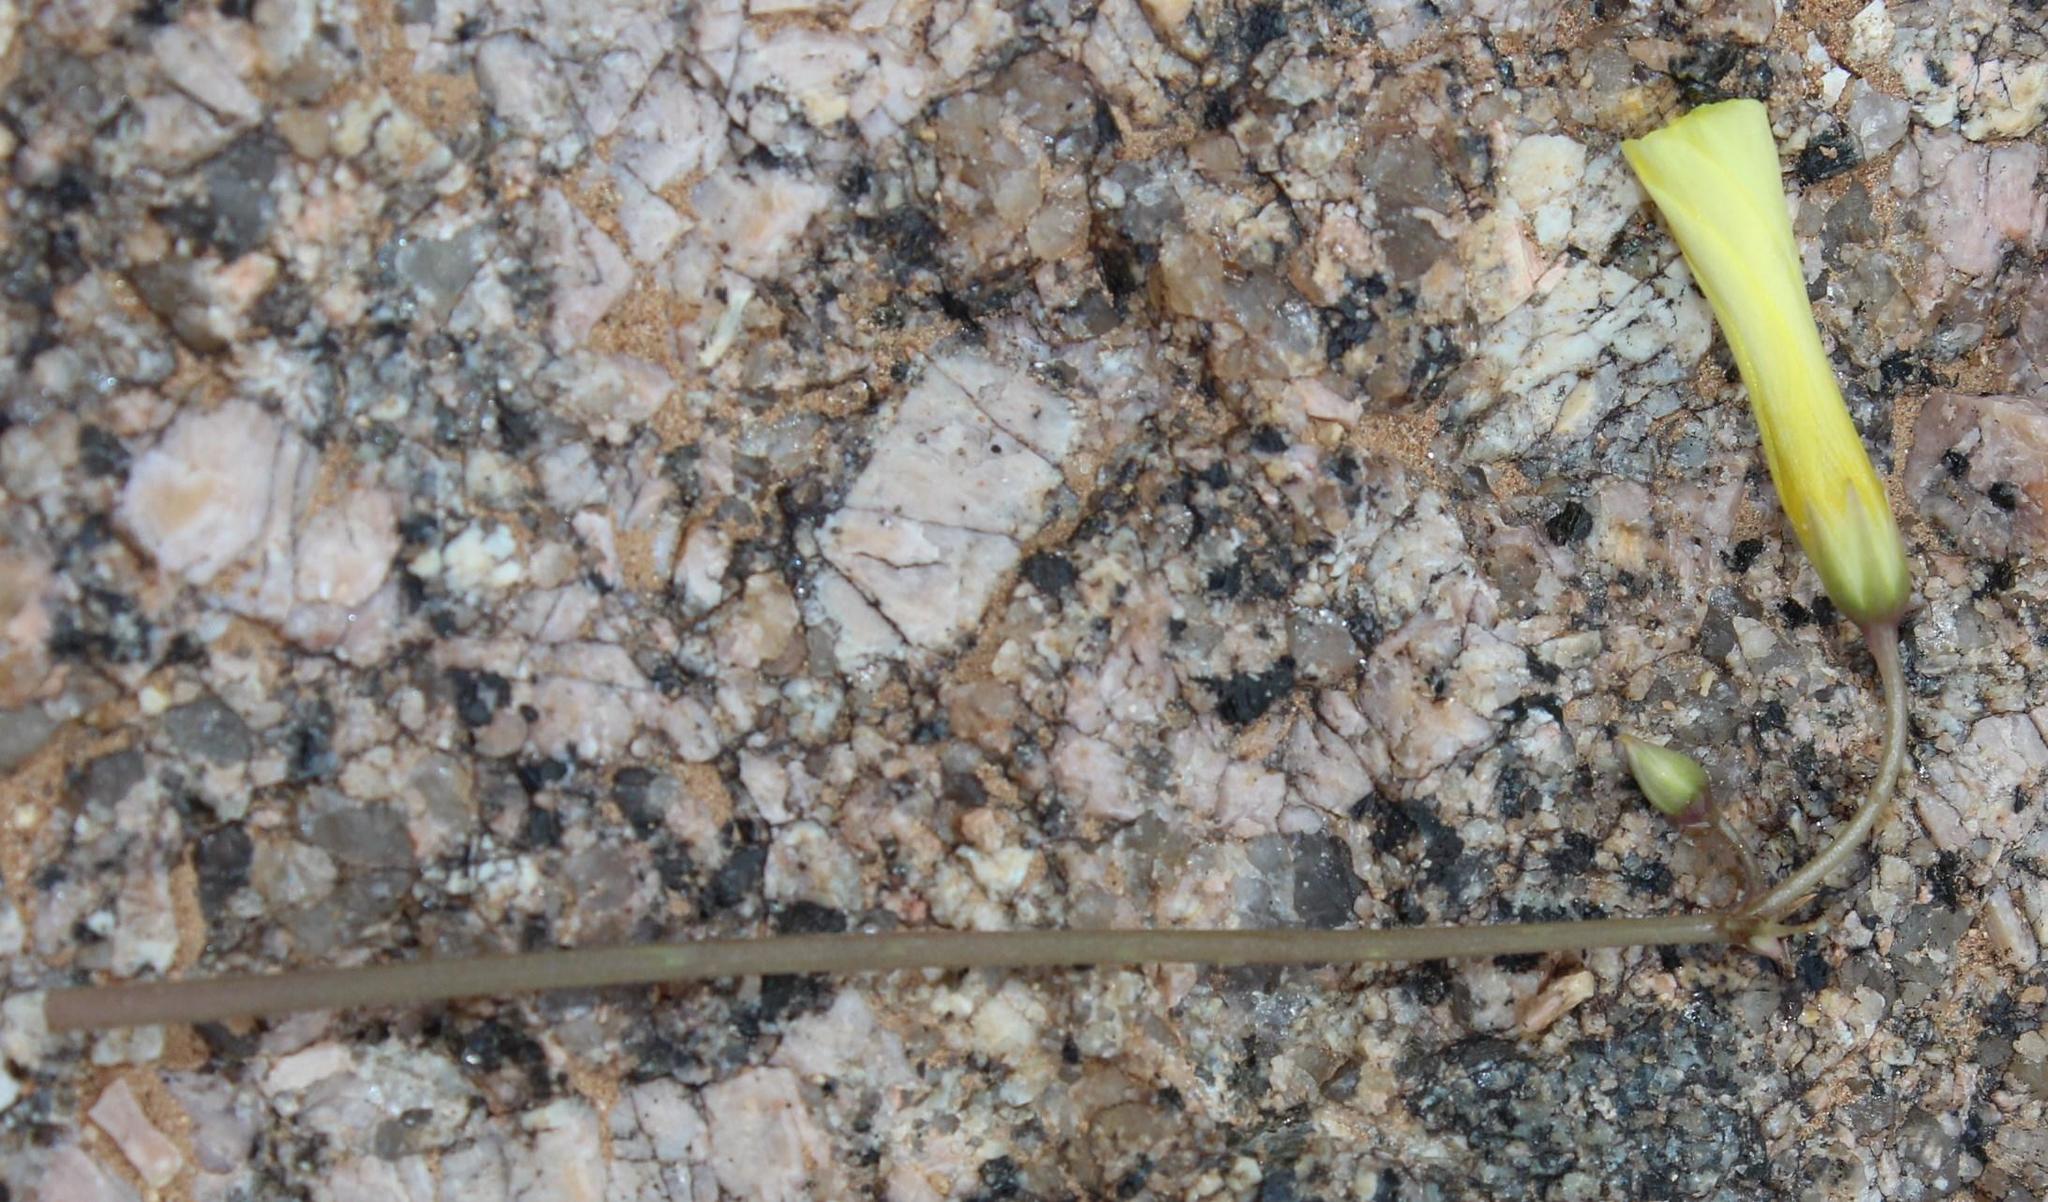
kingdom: Plantae
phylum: Tracheophyta
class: Magnoliopsida
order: Oxalidales
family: Oxalidaceae
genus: Oxalis
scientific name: Oxalis copiosa
